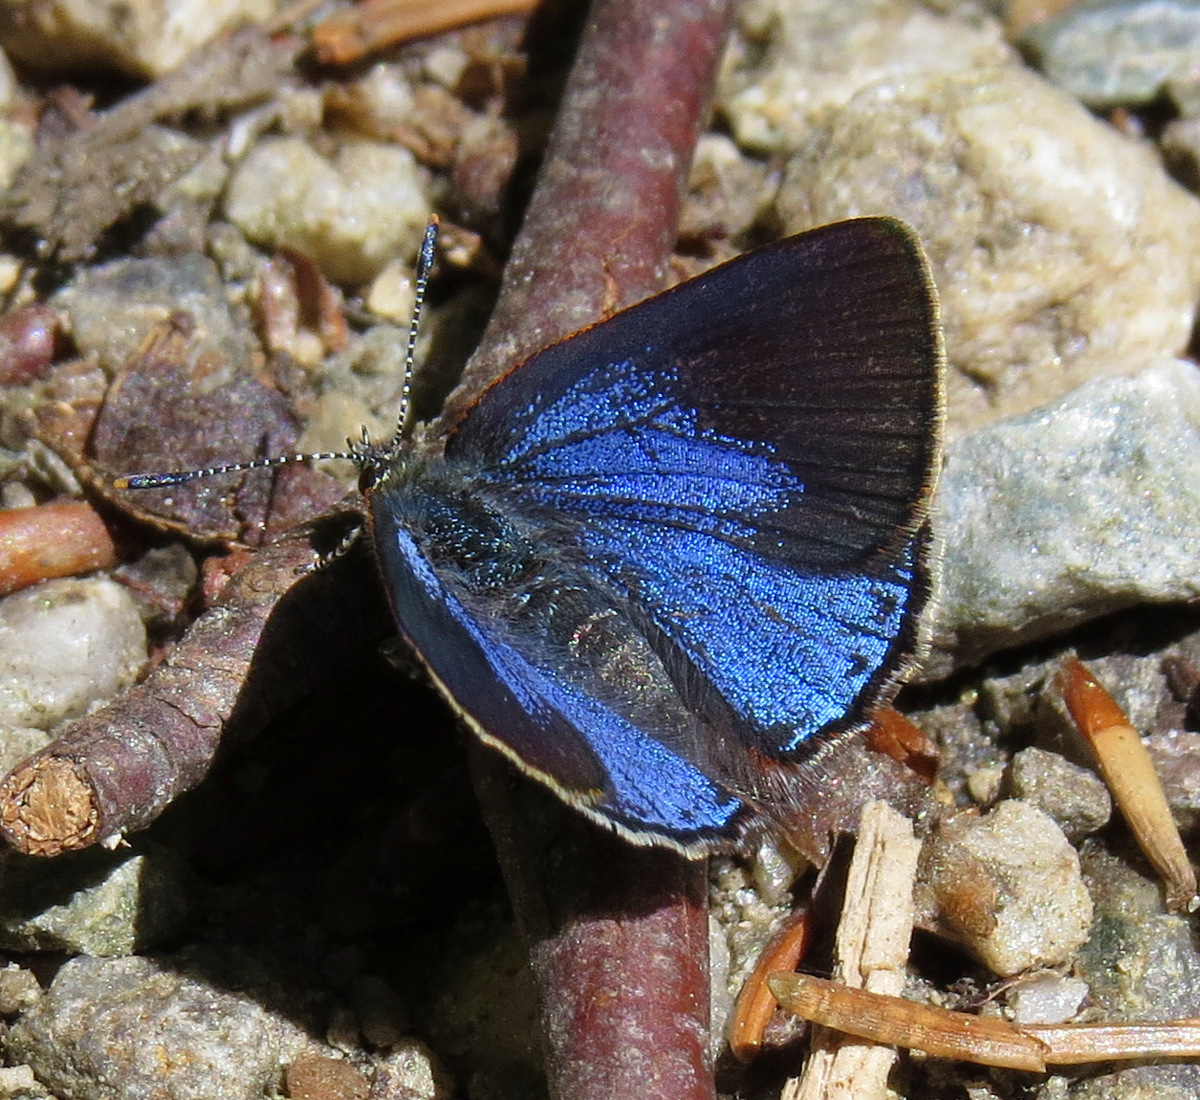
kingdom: Animalia
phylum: Arthropoda
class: Insecta
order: Lepidoptera
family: Lycaenidae
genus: Erora
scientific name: Erora laeta
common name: Early hairstreak
